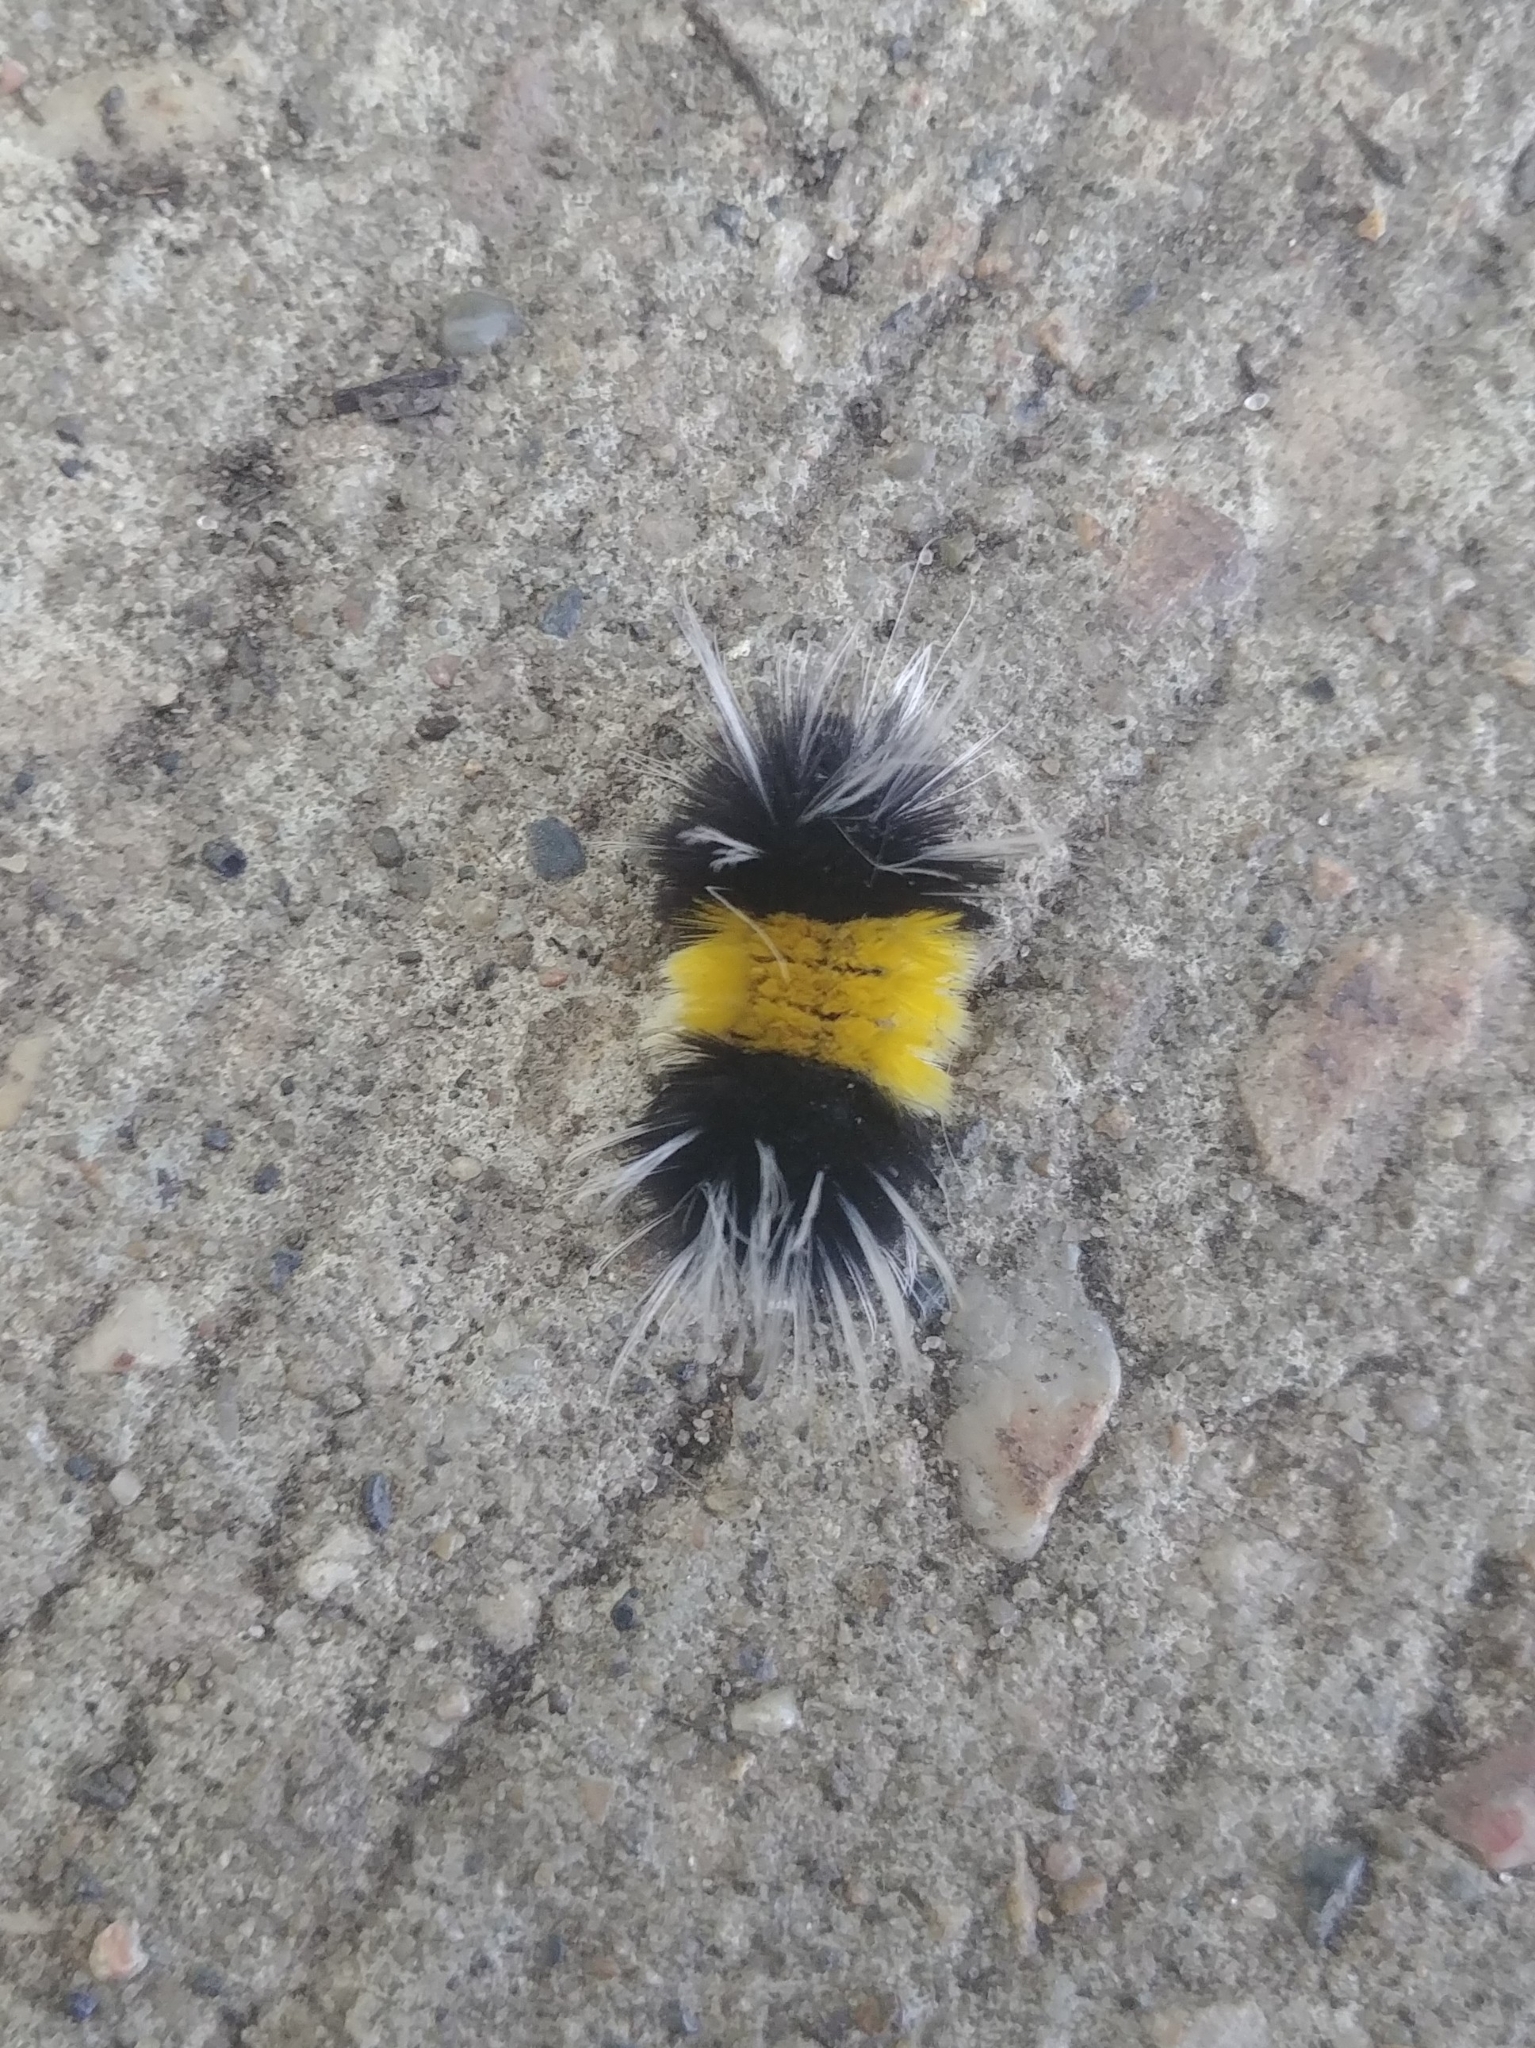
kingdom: Animalia
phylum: Arthropoda
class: Insecta
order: Lepidoptera
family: Erebidae
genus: Lophocampa
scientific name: Lophocampa maculata
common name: Spotted tussock moth
